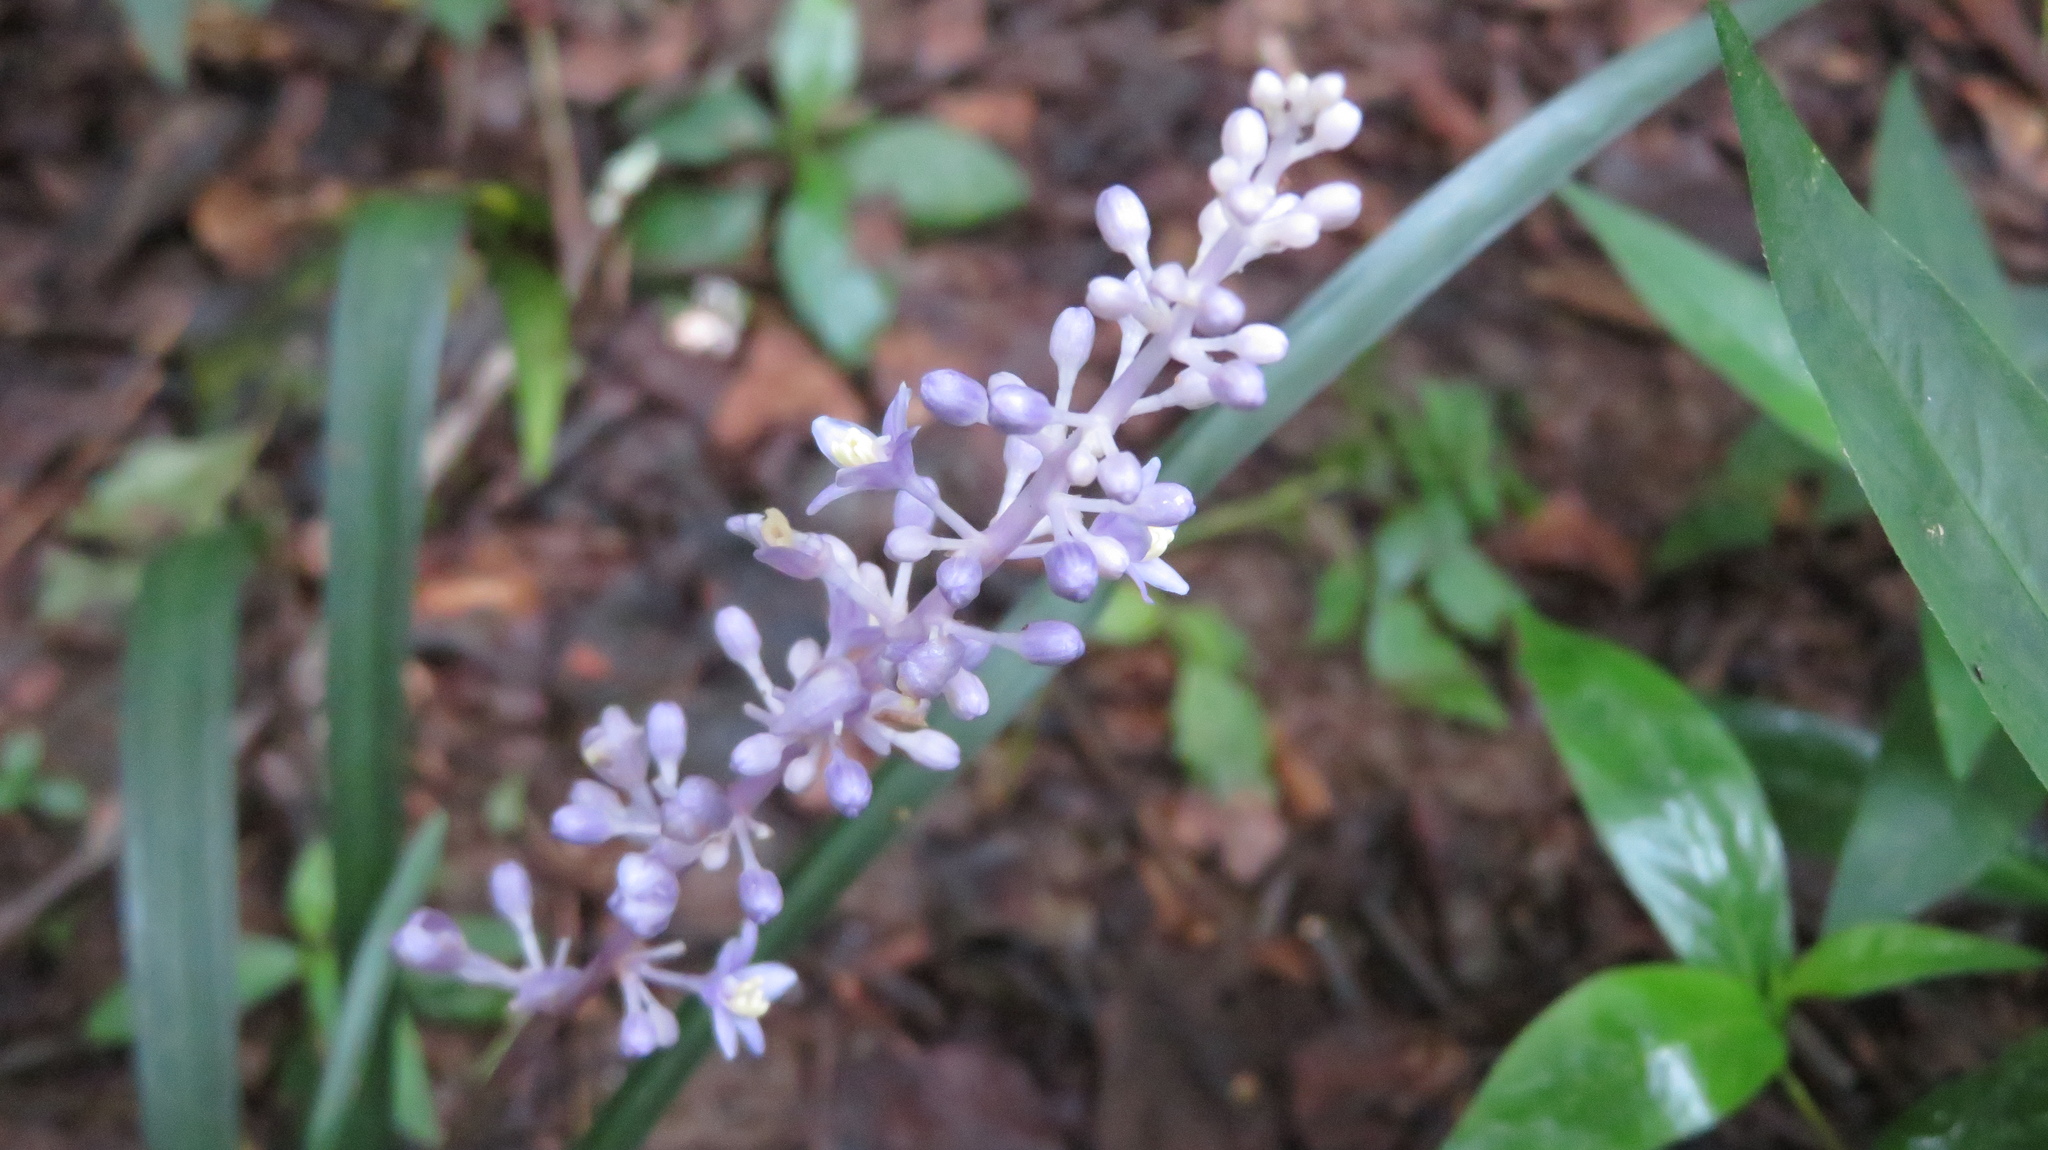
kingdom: Plantae
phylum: Tracheophyta
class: Liliopsida
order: Asparagales
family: Asparagaceae
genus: Liriope
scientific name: Liriope muscari
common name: Big blue lilyturf
